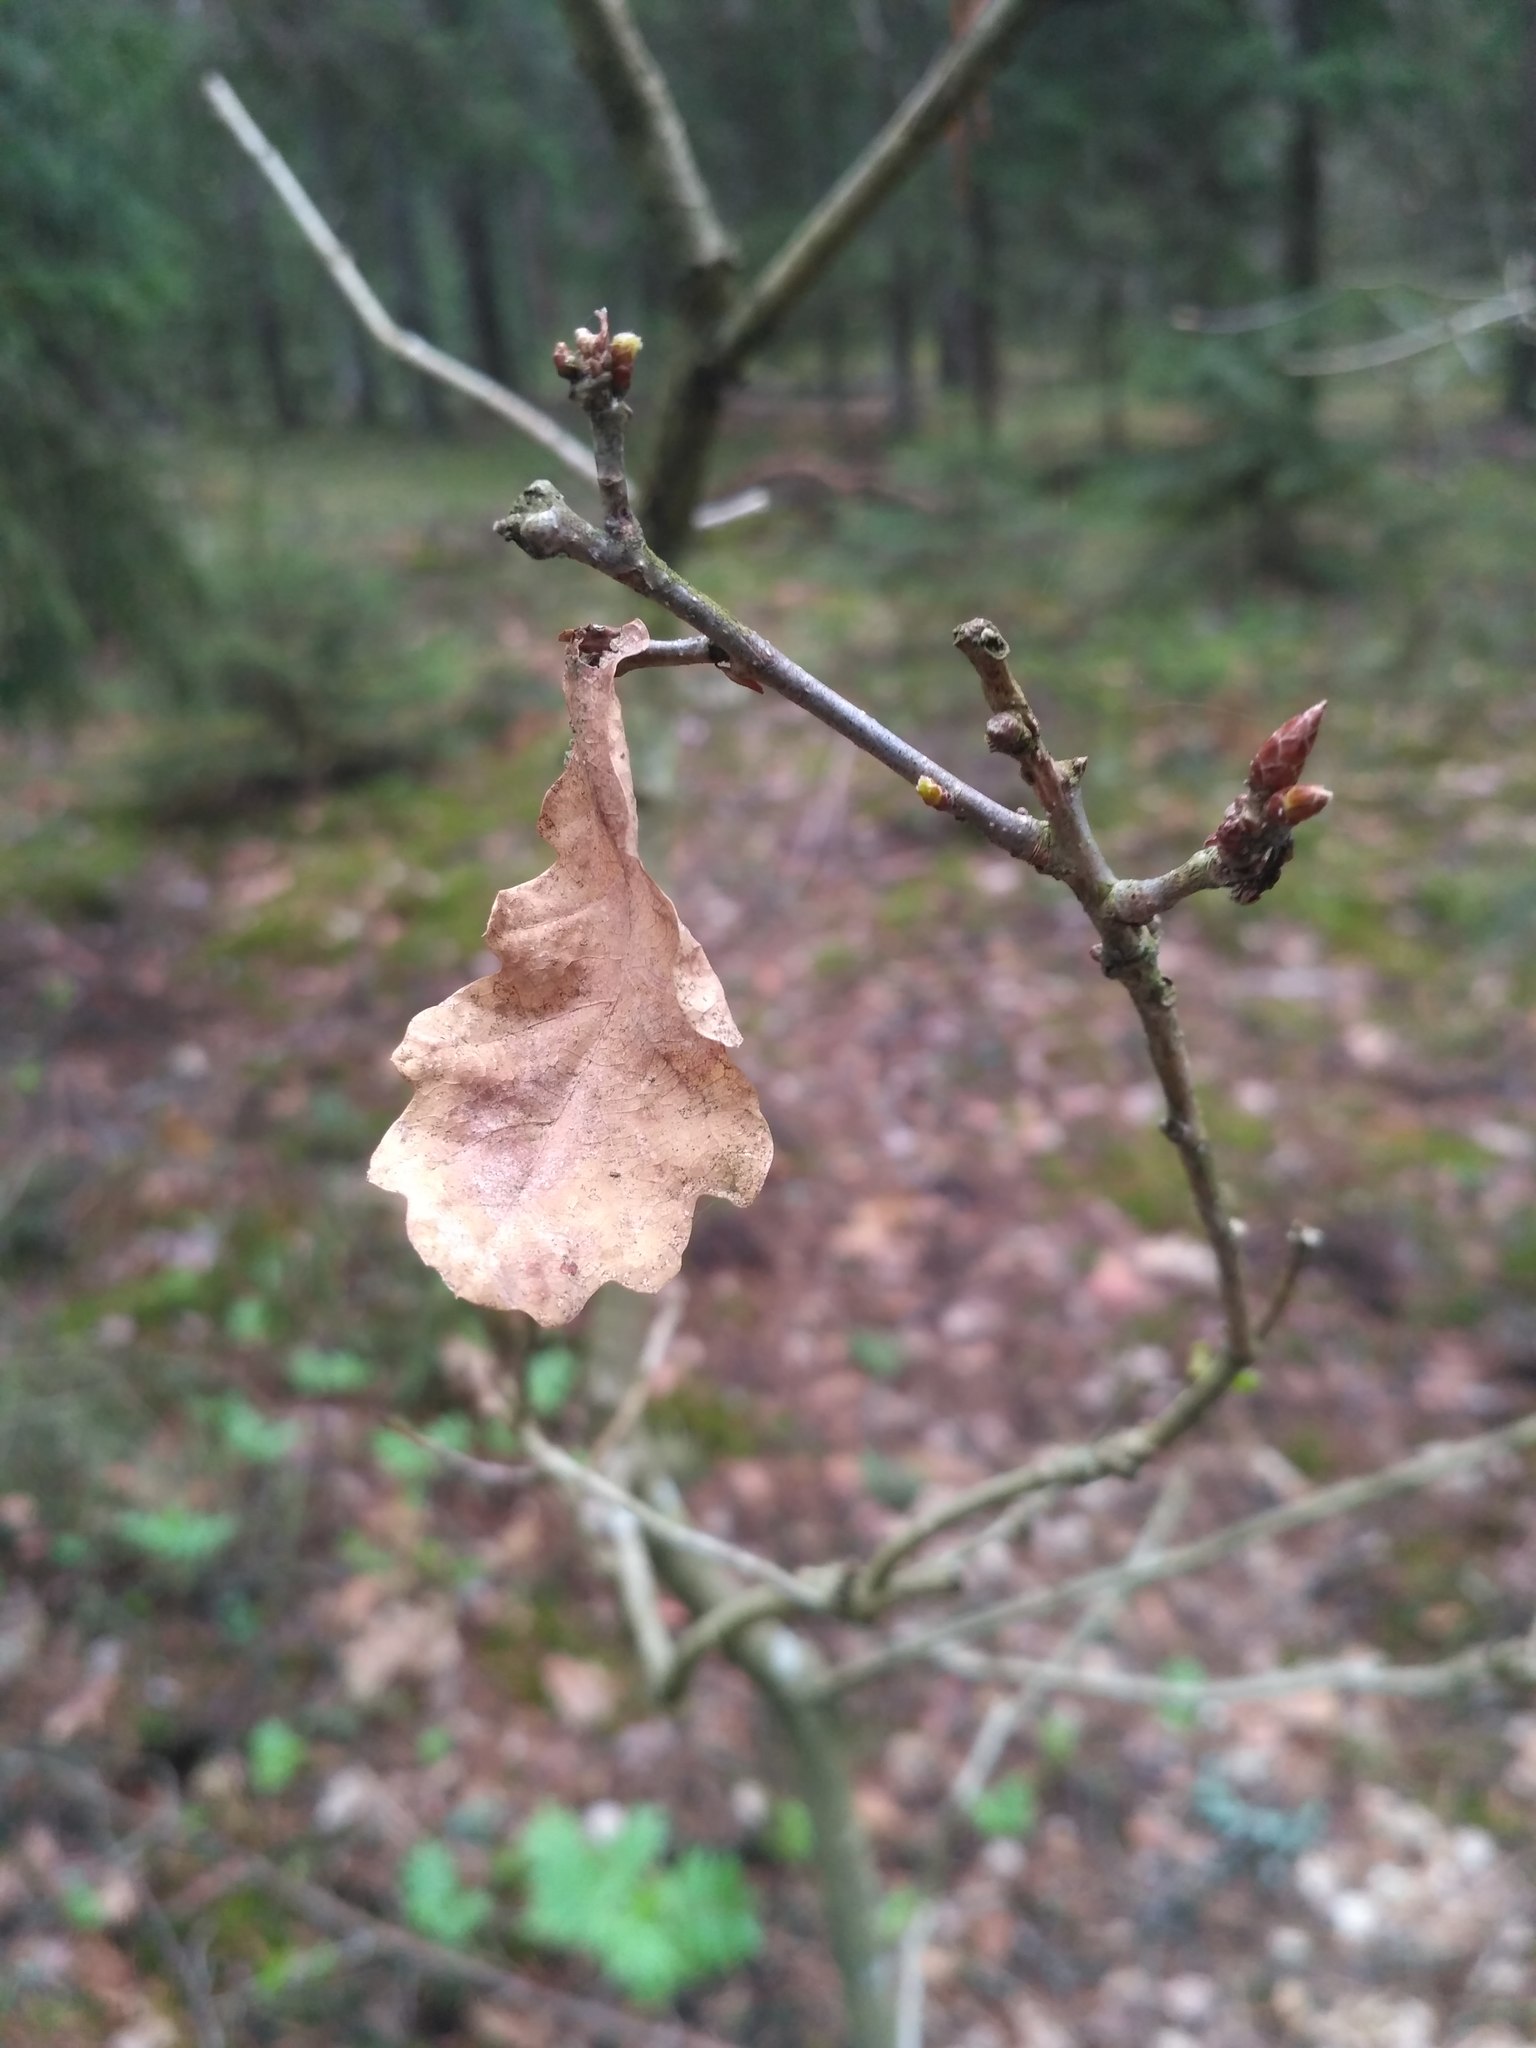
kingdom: Plantae
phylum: Tracheophyta
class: Magnoliopsida
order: Fagales
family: Fagaceae
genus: Quercus
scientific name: Quercus robur
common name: Pedunculate oak
